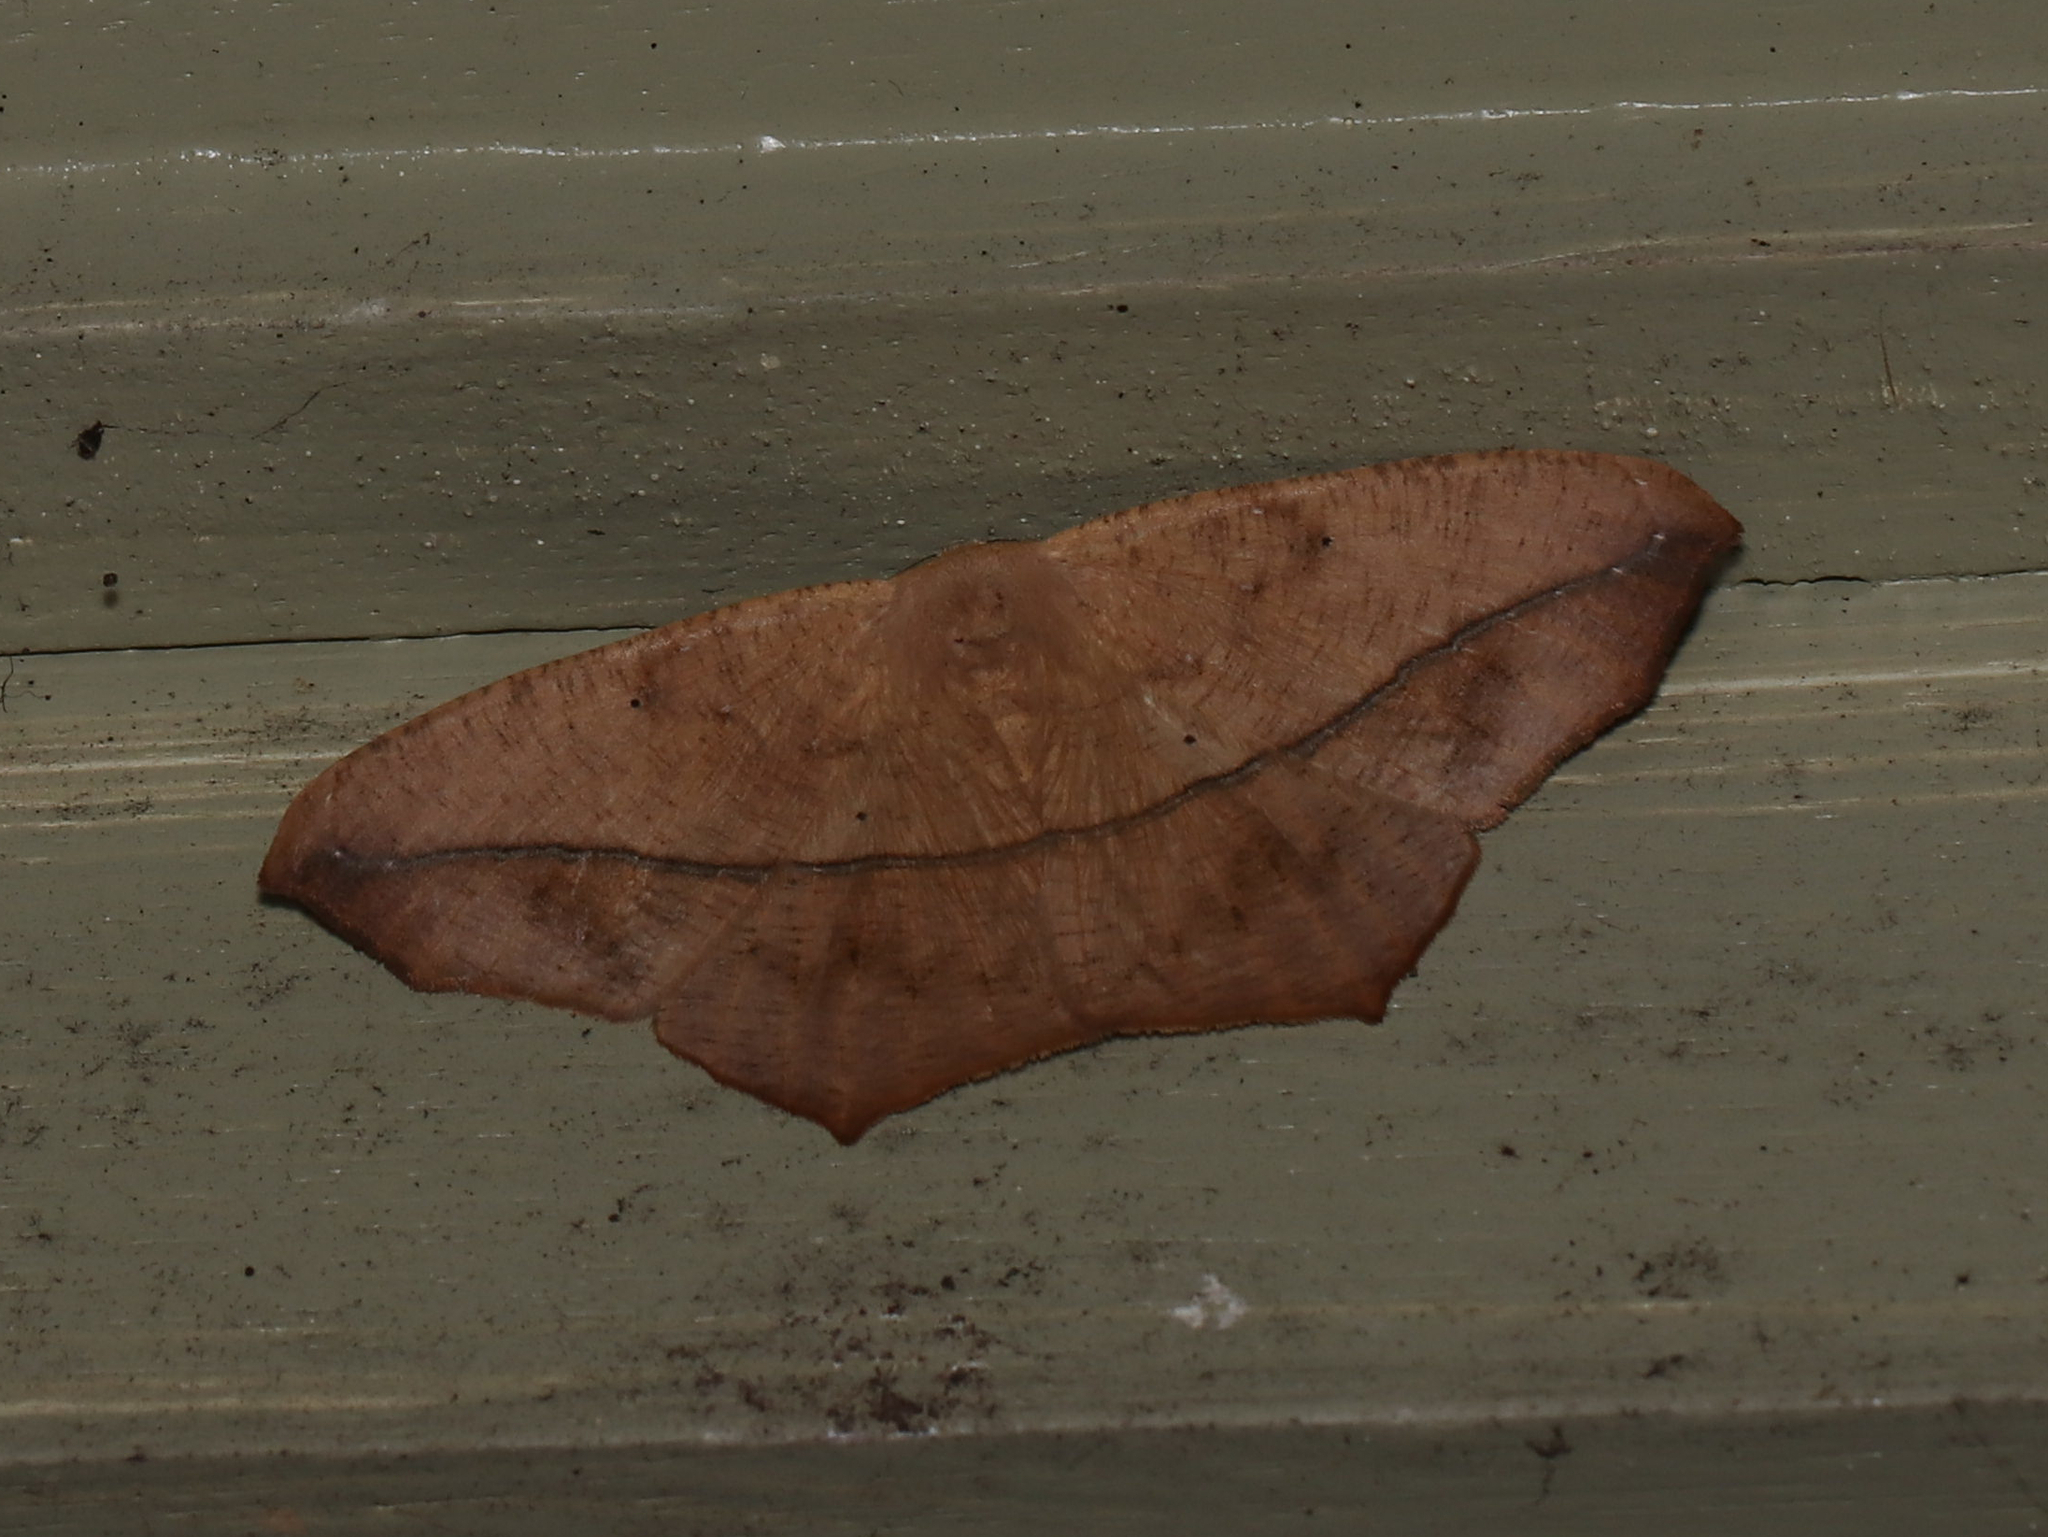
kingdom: Animalia
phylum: Arthropoda
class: Insecta
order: Lepidoptera
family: Geometridae
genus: Prochoerodes
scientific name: Prochoerodes lineola
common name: Large maple spanworm
